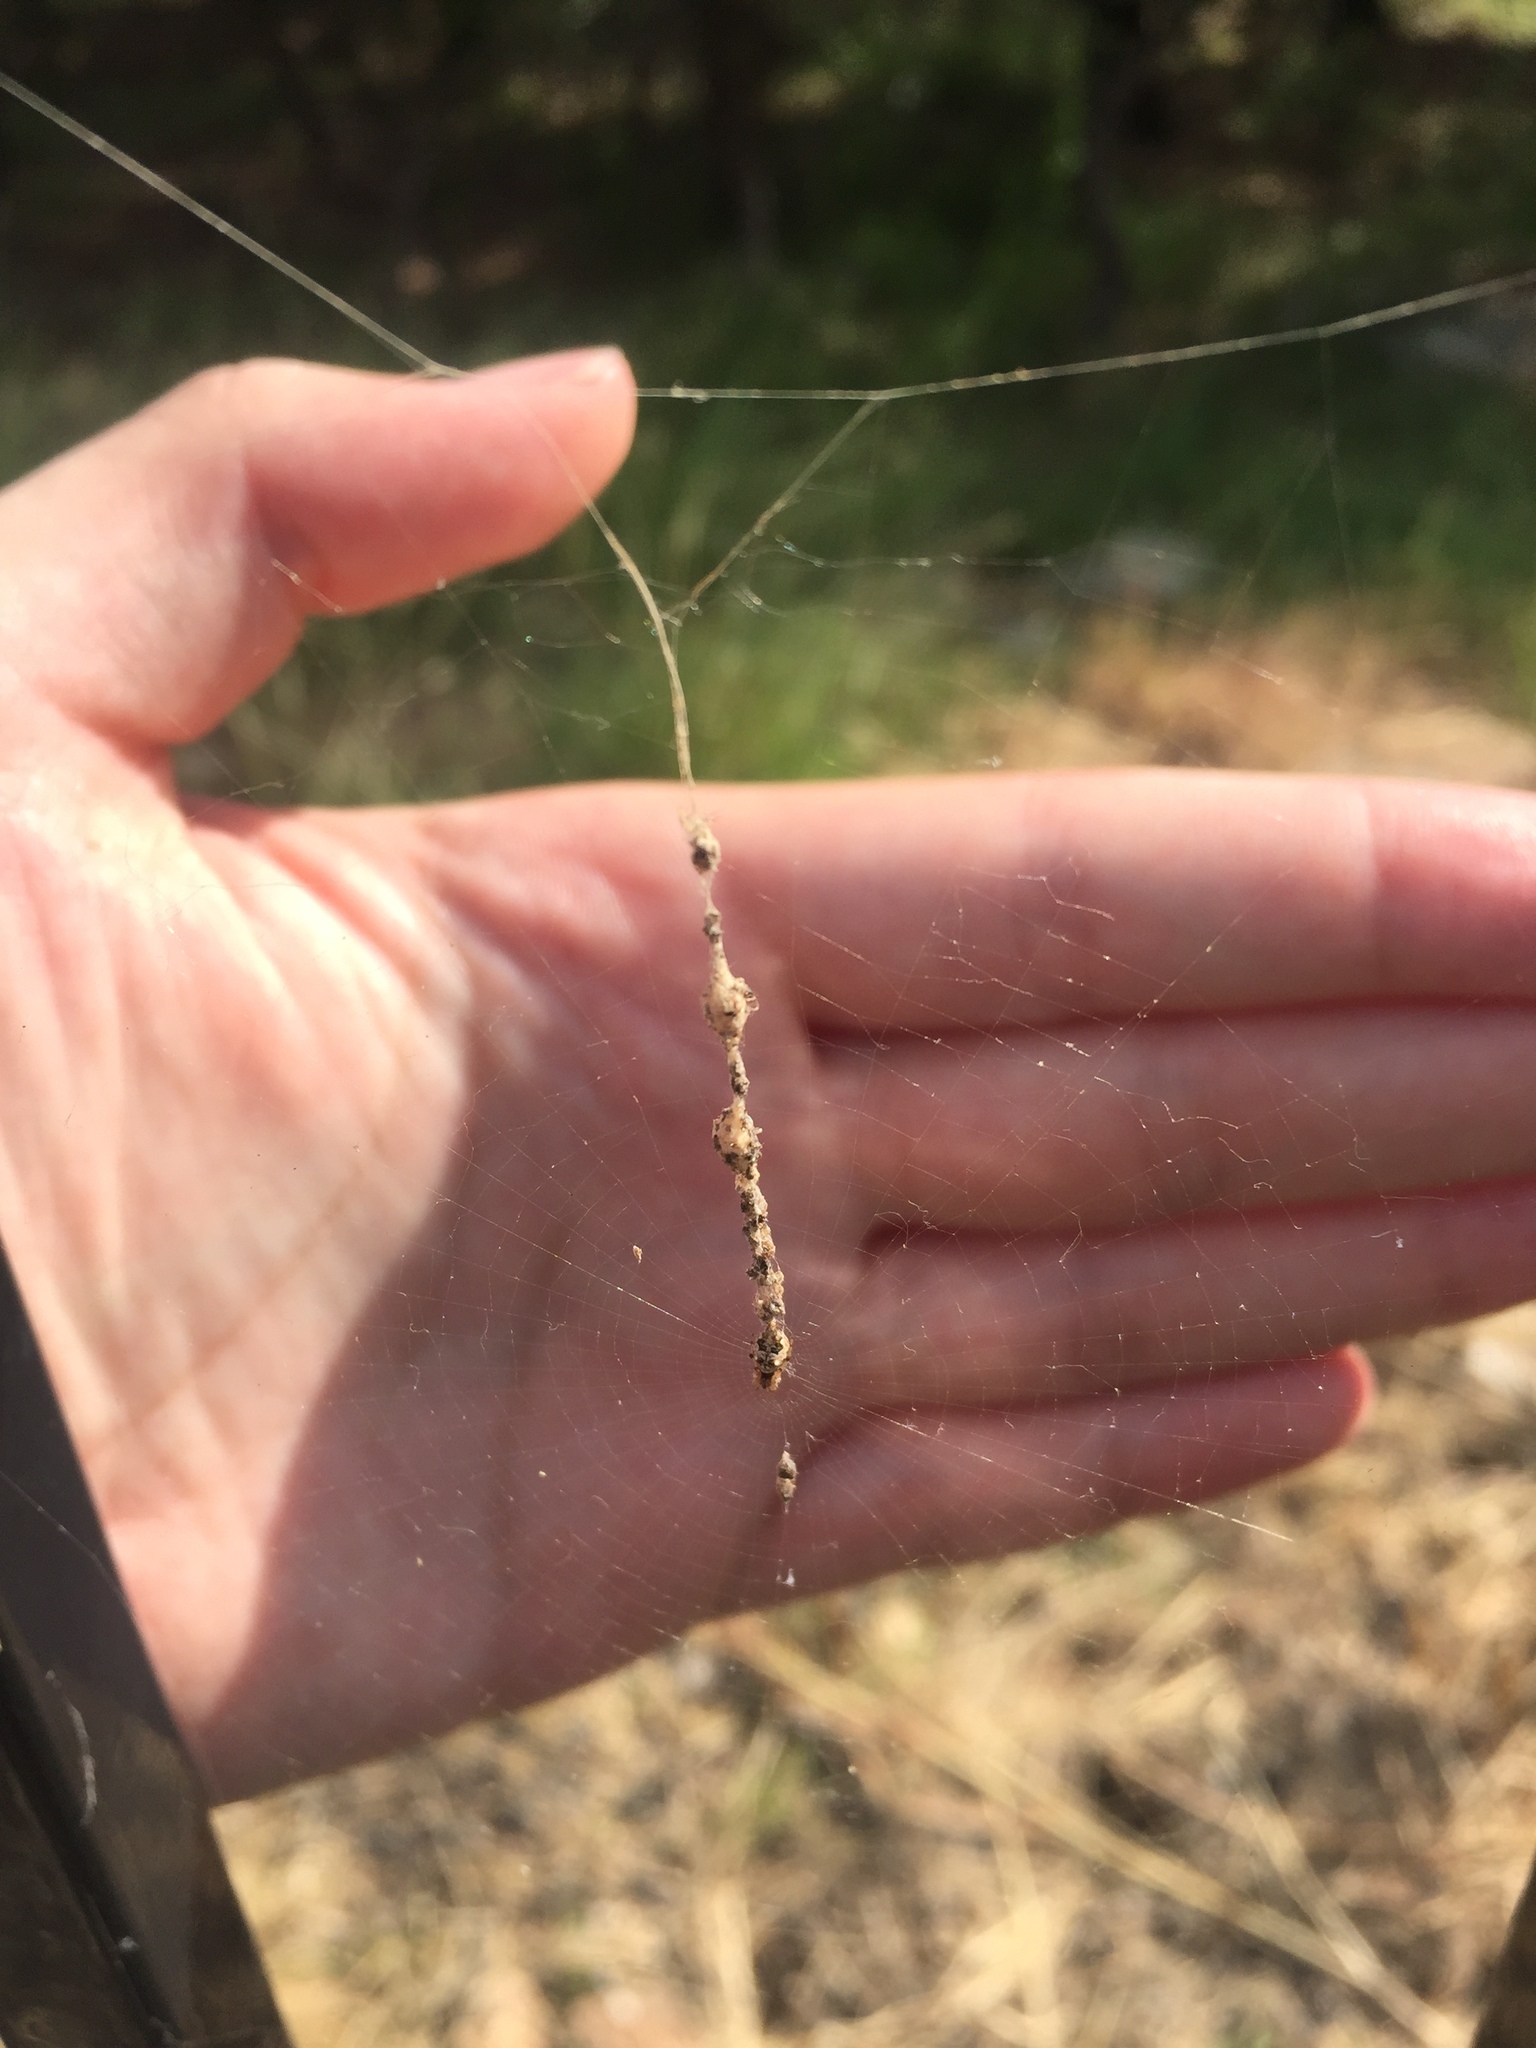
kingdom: Animalia
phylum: Arthropoda
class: Arachnida
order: Araneae
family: Araneidae
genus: Cyclosa
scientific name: Cyclosa turbinata
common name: Orb weavers
